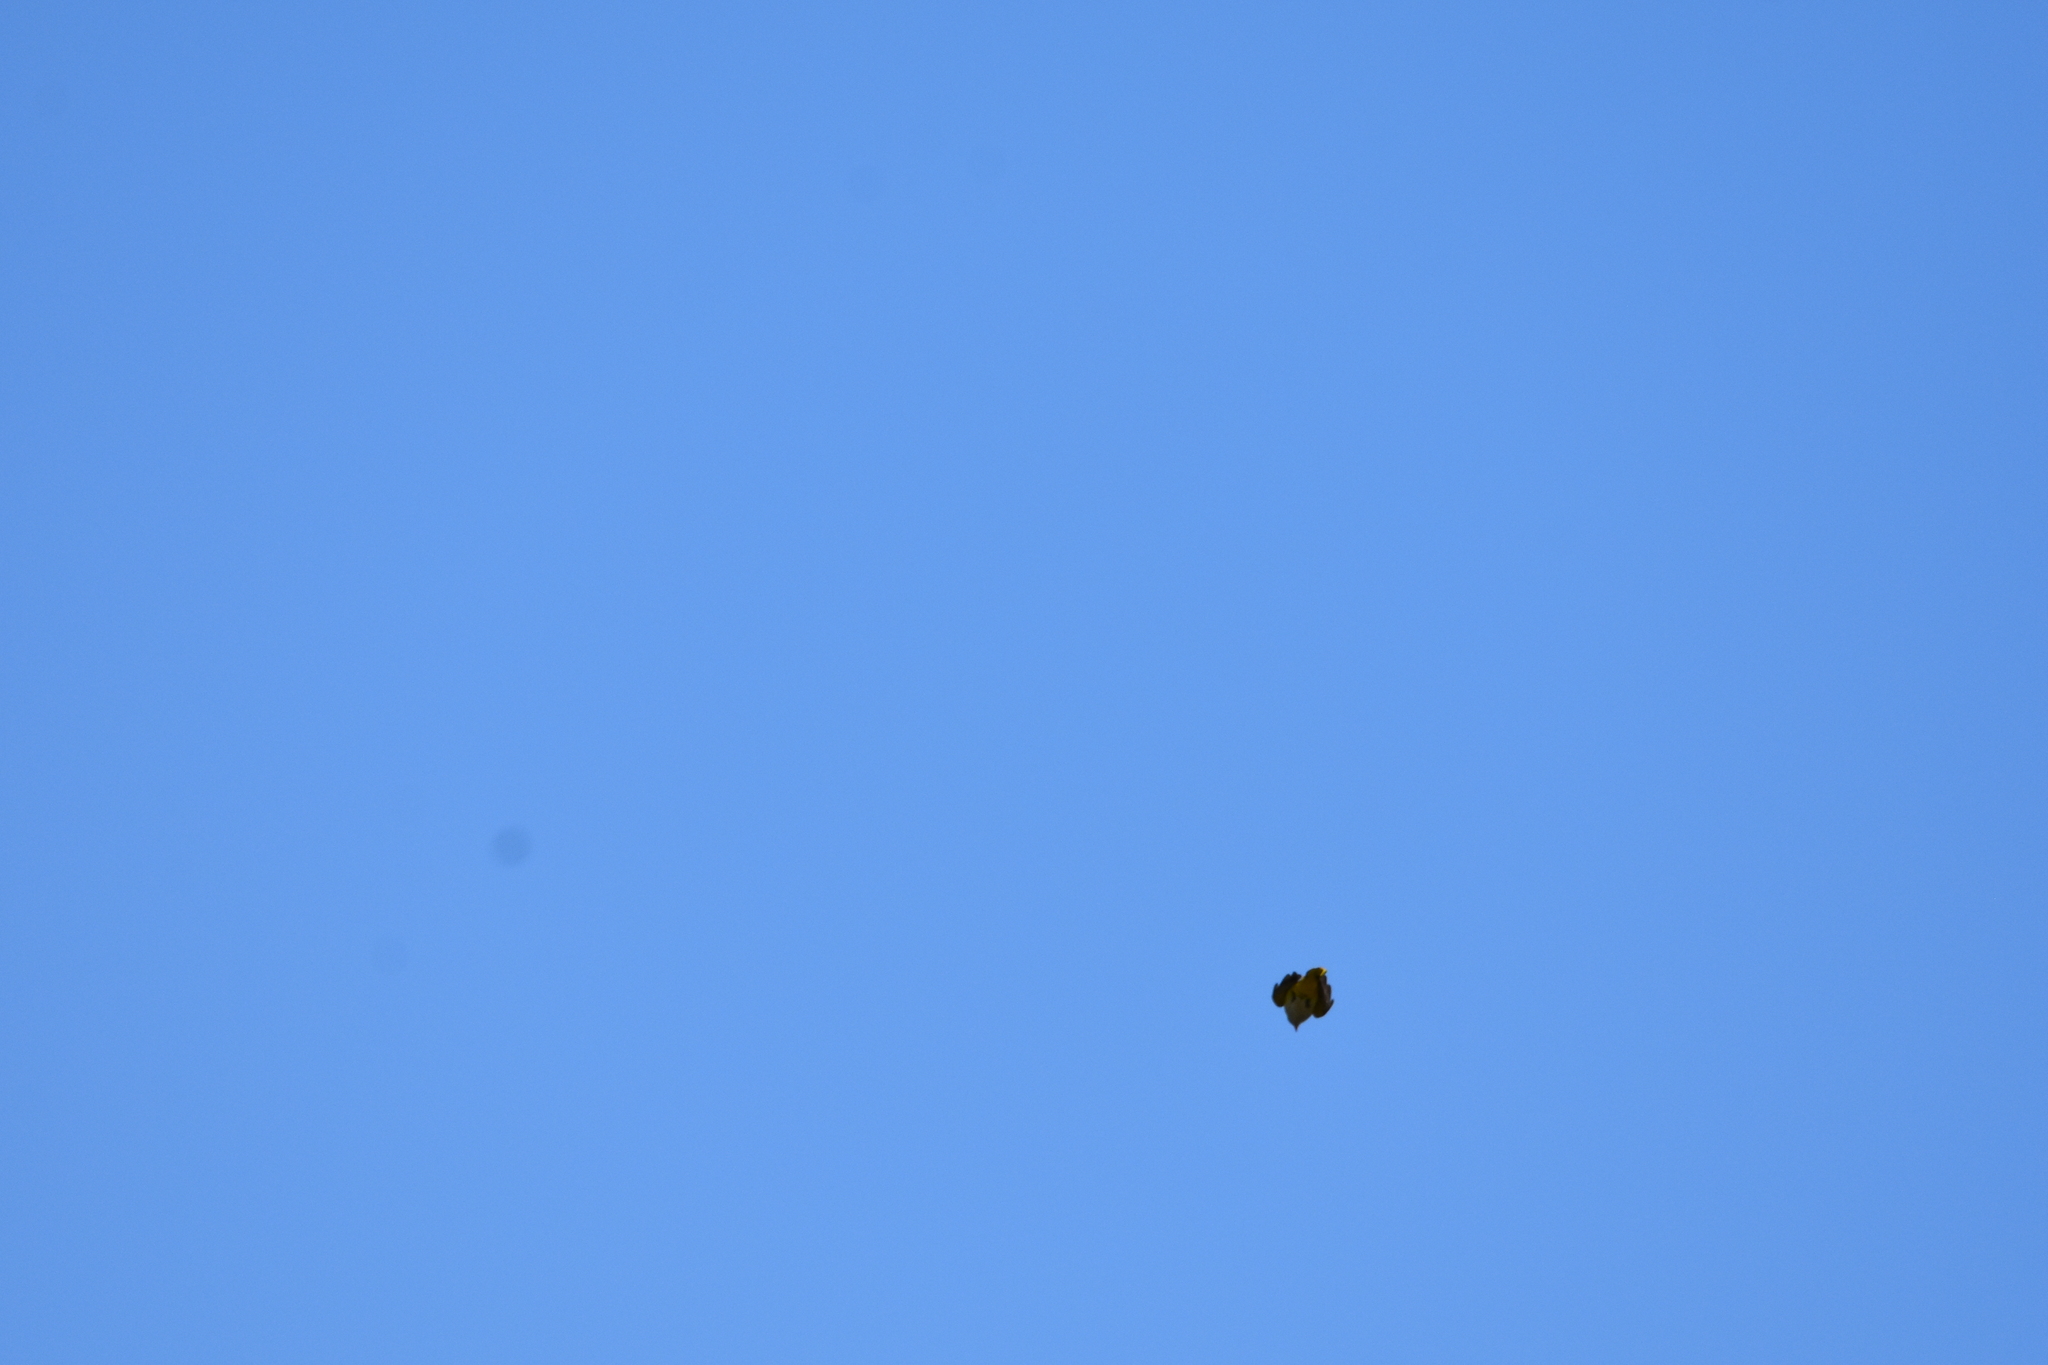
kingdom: Animalia
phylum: Chordata
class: Aves
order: Passeriformes
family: Oriolidae
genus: Oriolus
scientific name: Oriolus oriolus
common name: Eurasian golden oriole
